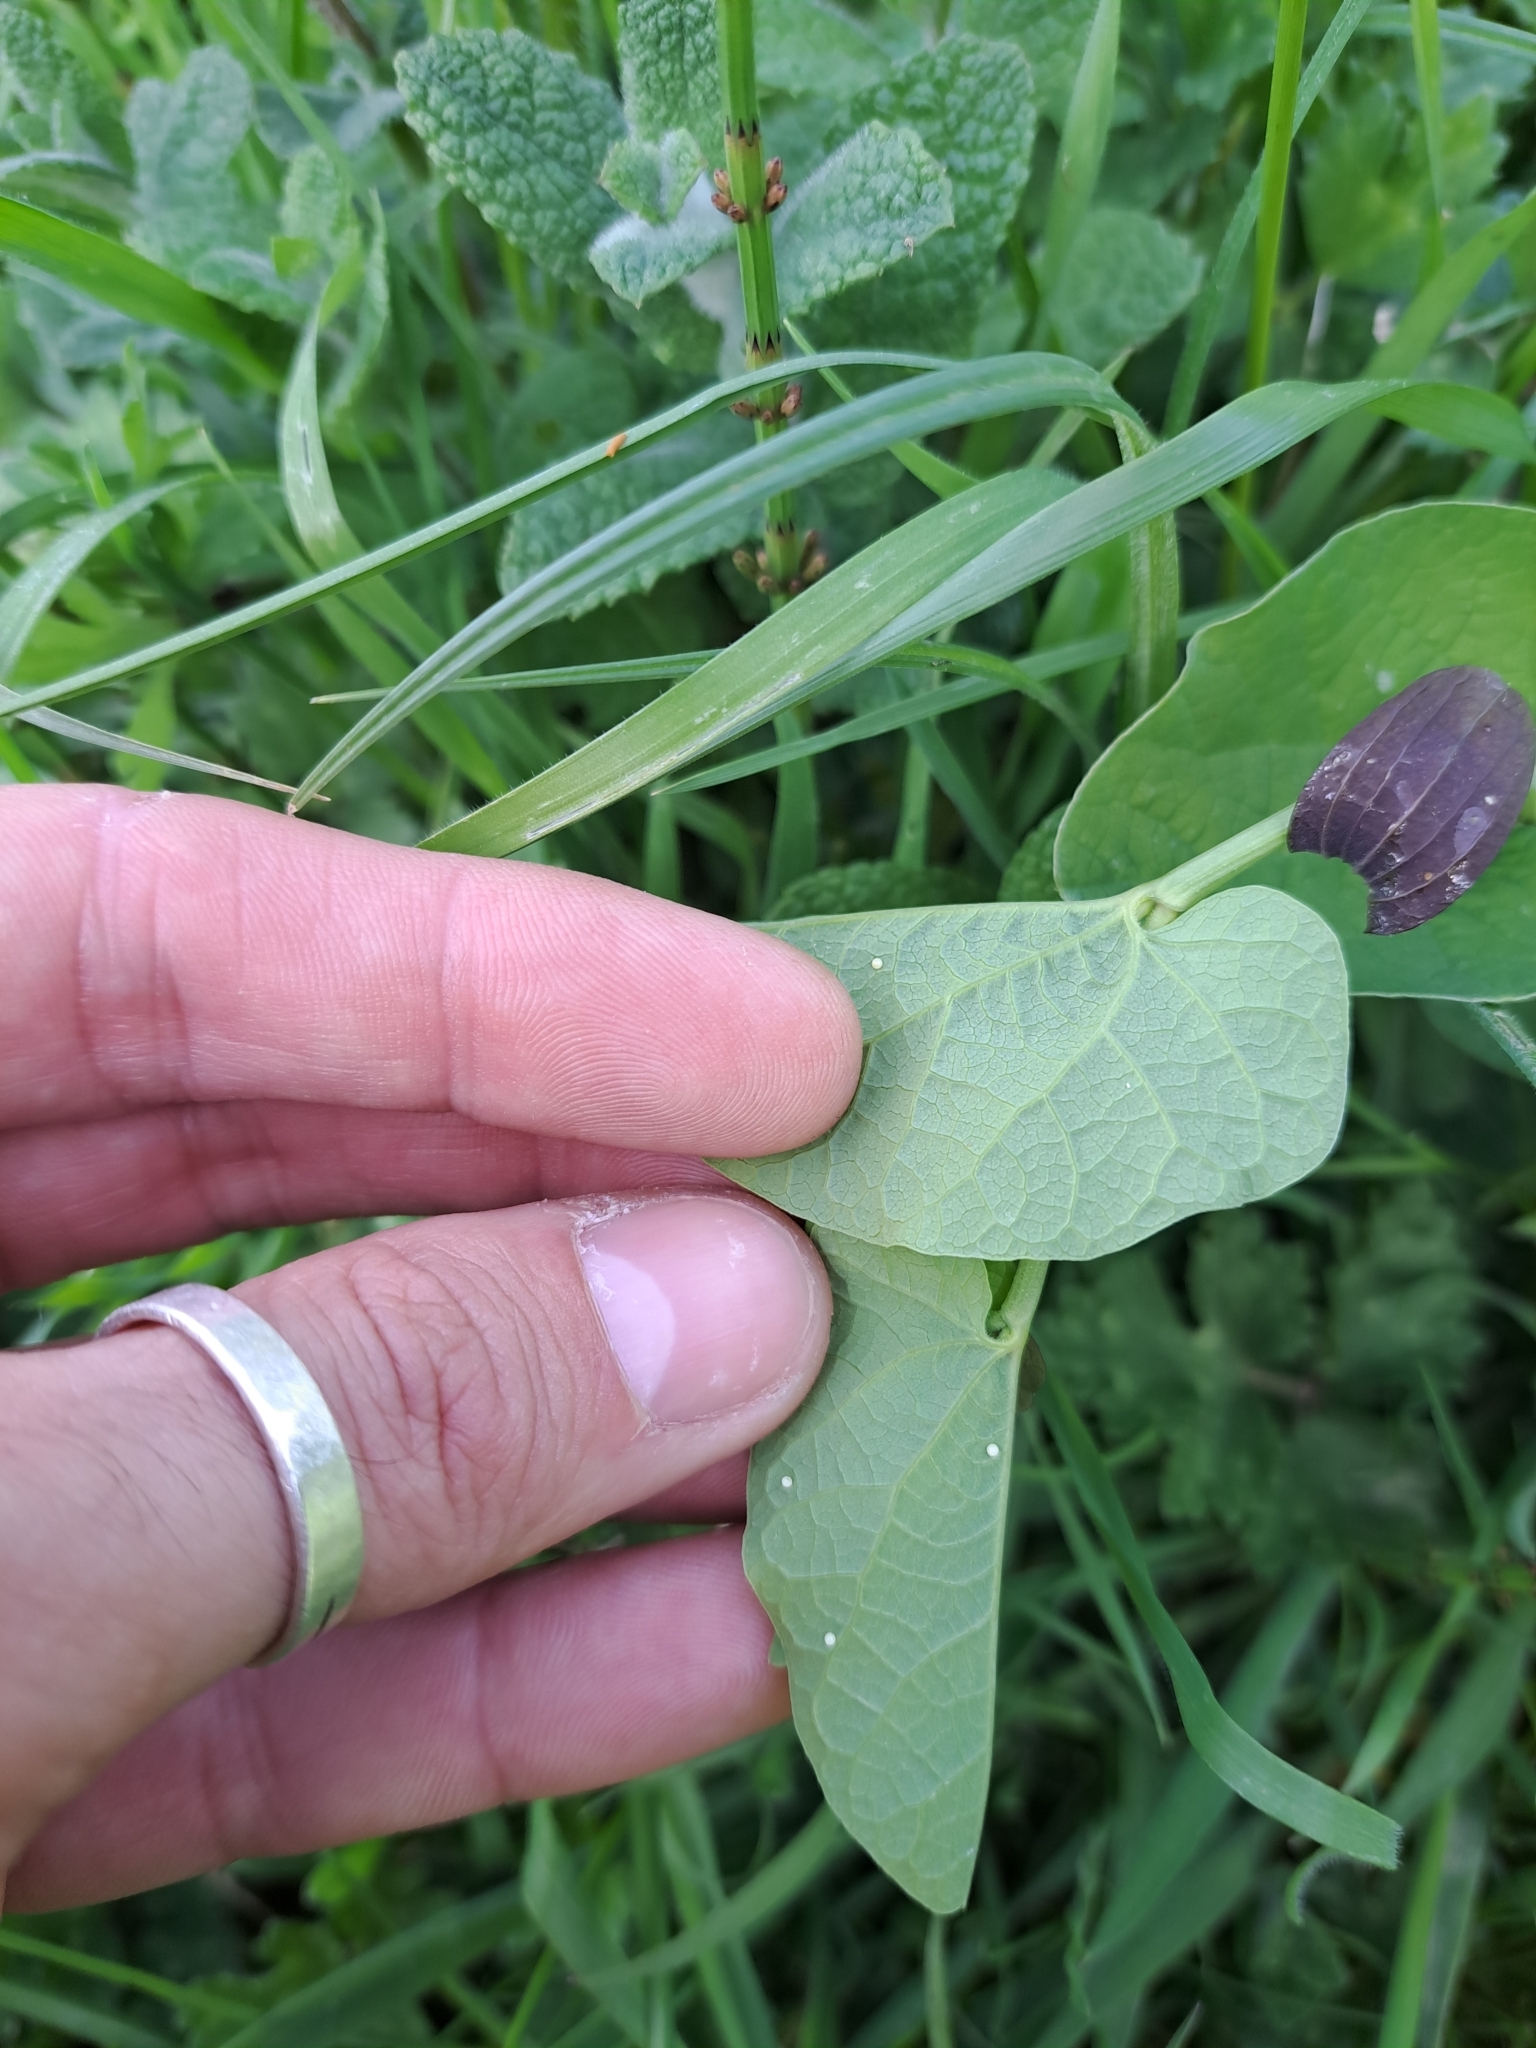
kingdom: Animalia
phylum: Arthropoda
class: Insecta
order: Lepidoptera
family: Papilionidae
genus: Zerynthia
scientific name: Zerynthia cassandra
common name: Italian festoon
